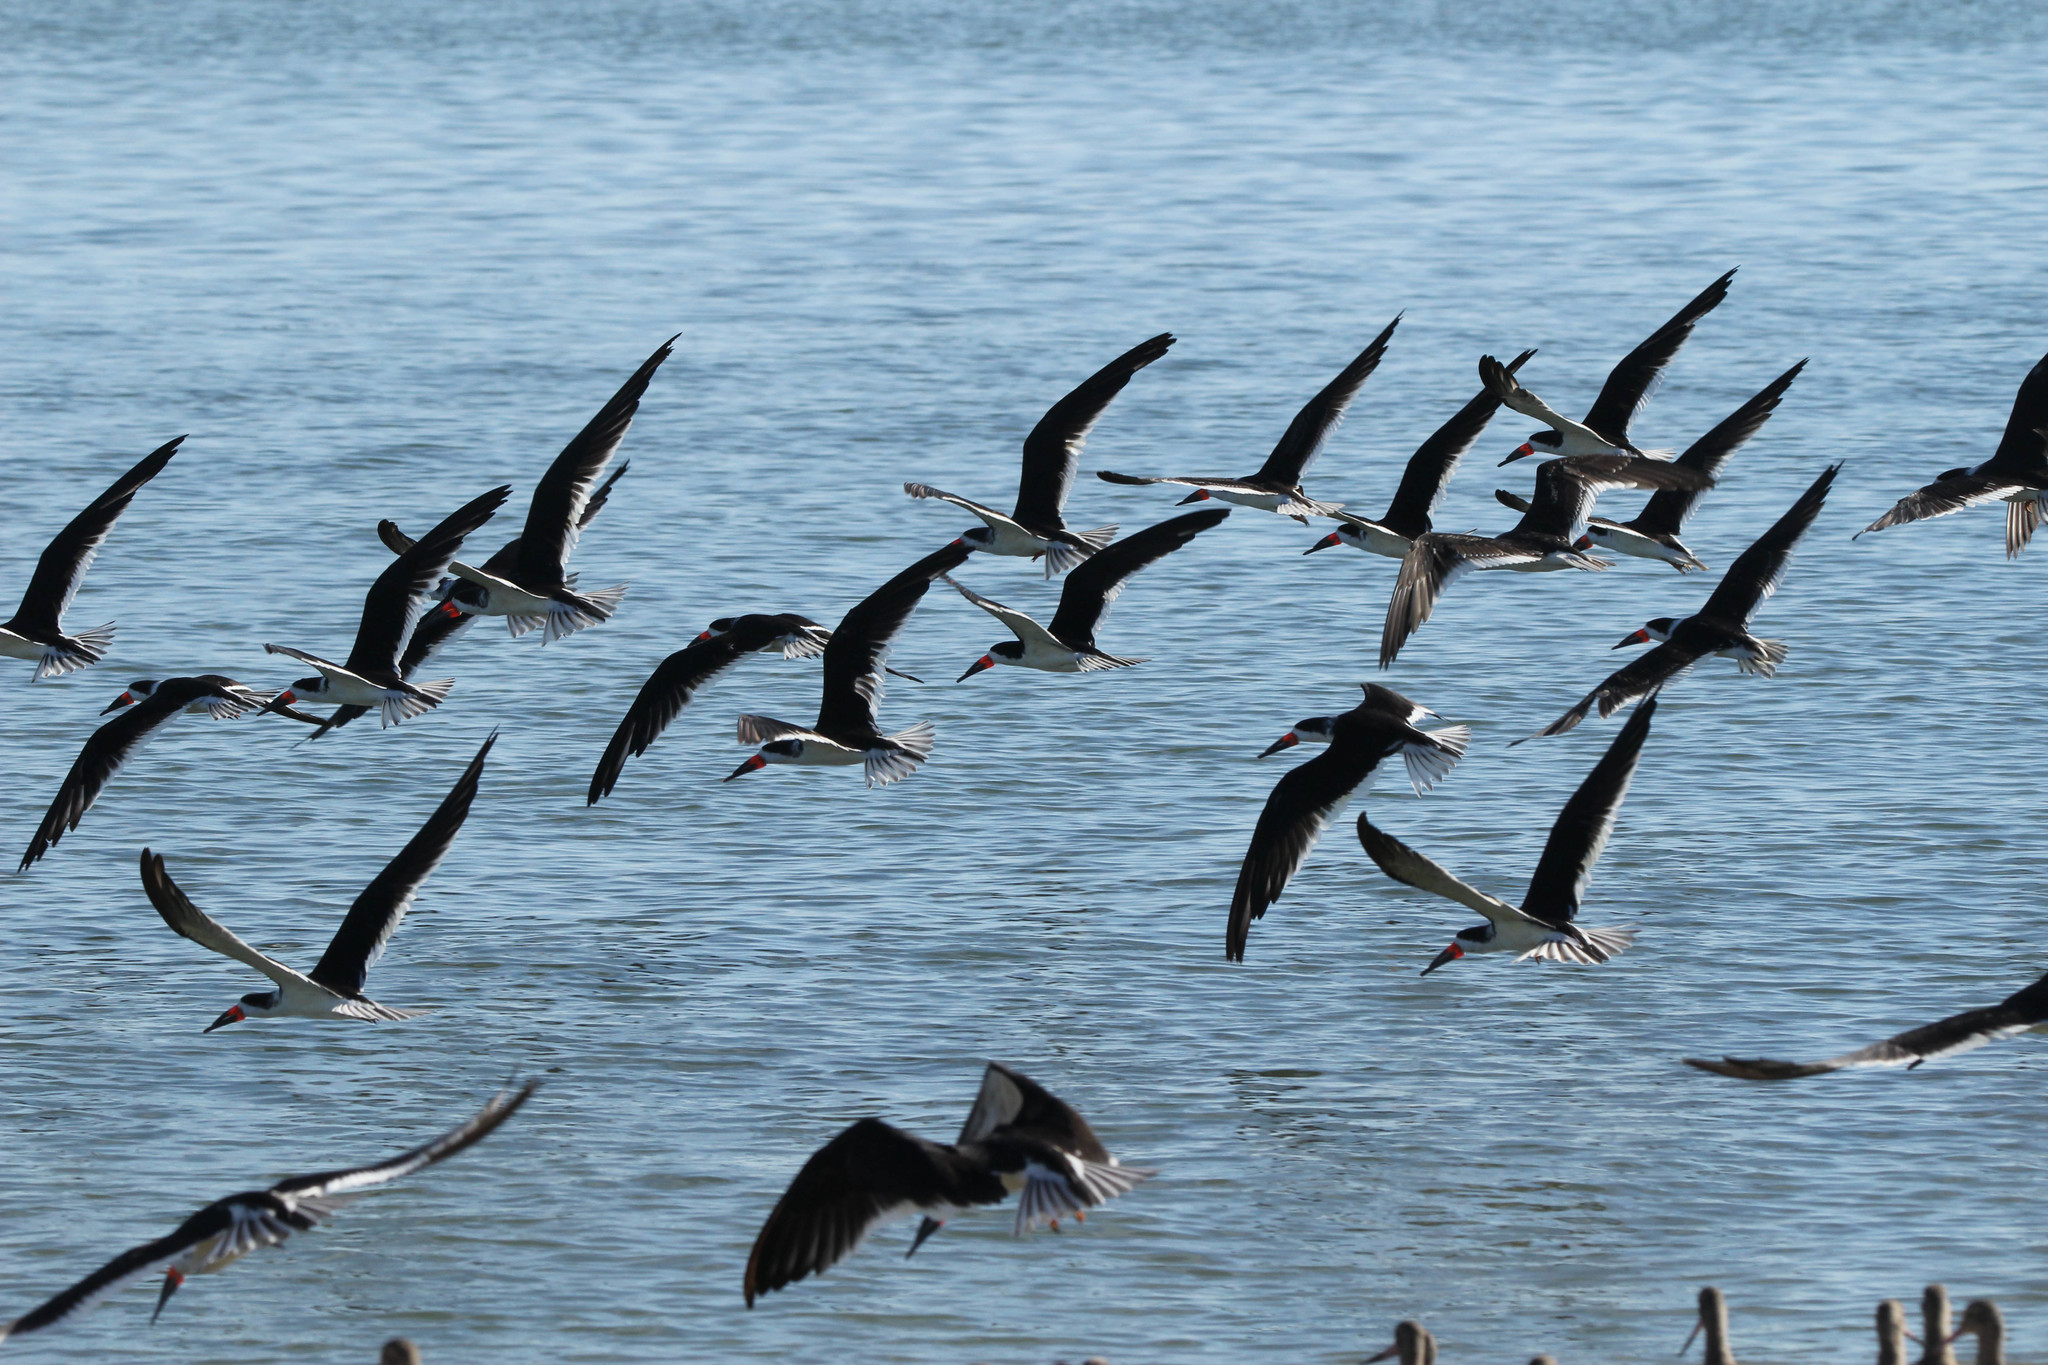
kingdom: Animalia
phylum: Chordata
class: Aves
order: Charadriiformes
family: Laridae
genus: Rynchops
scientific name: Rynchops niger
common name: Black skimmer
